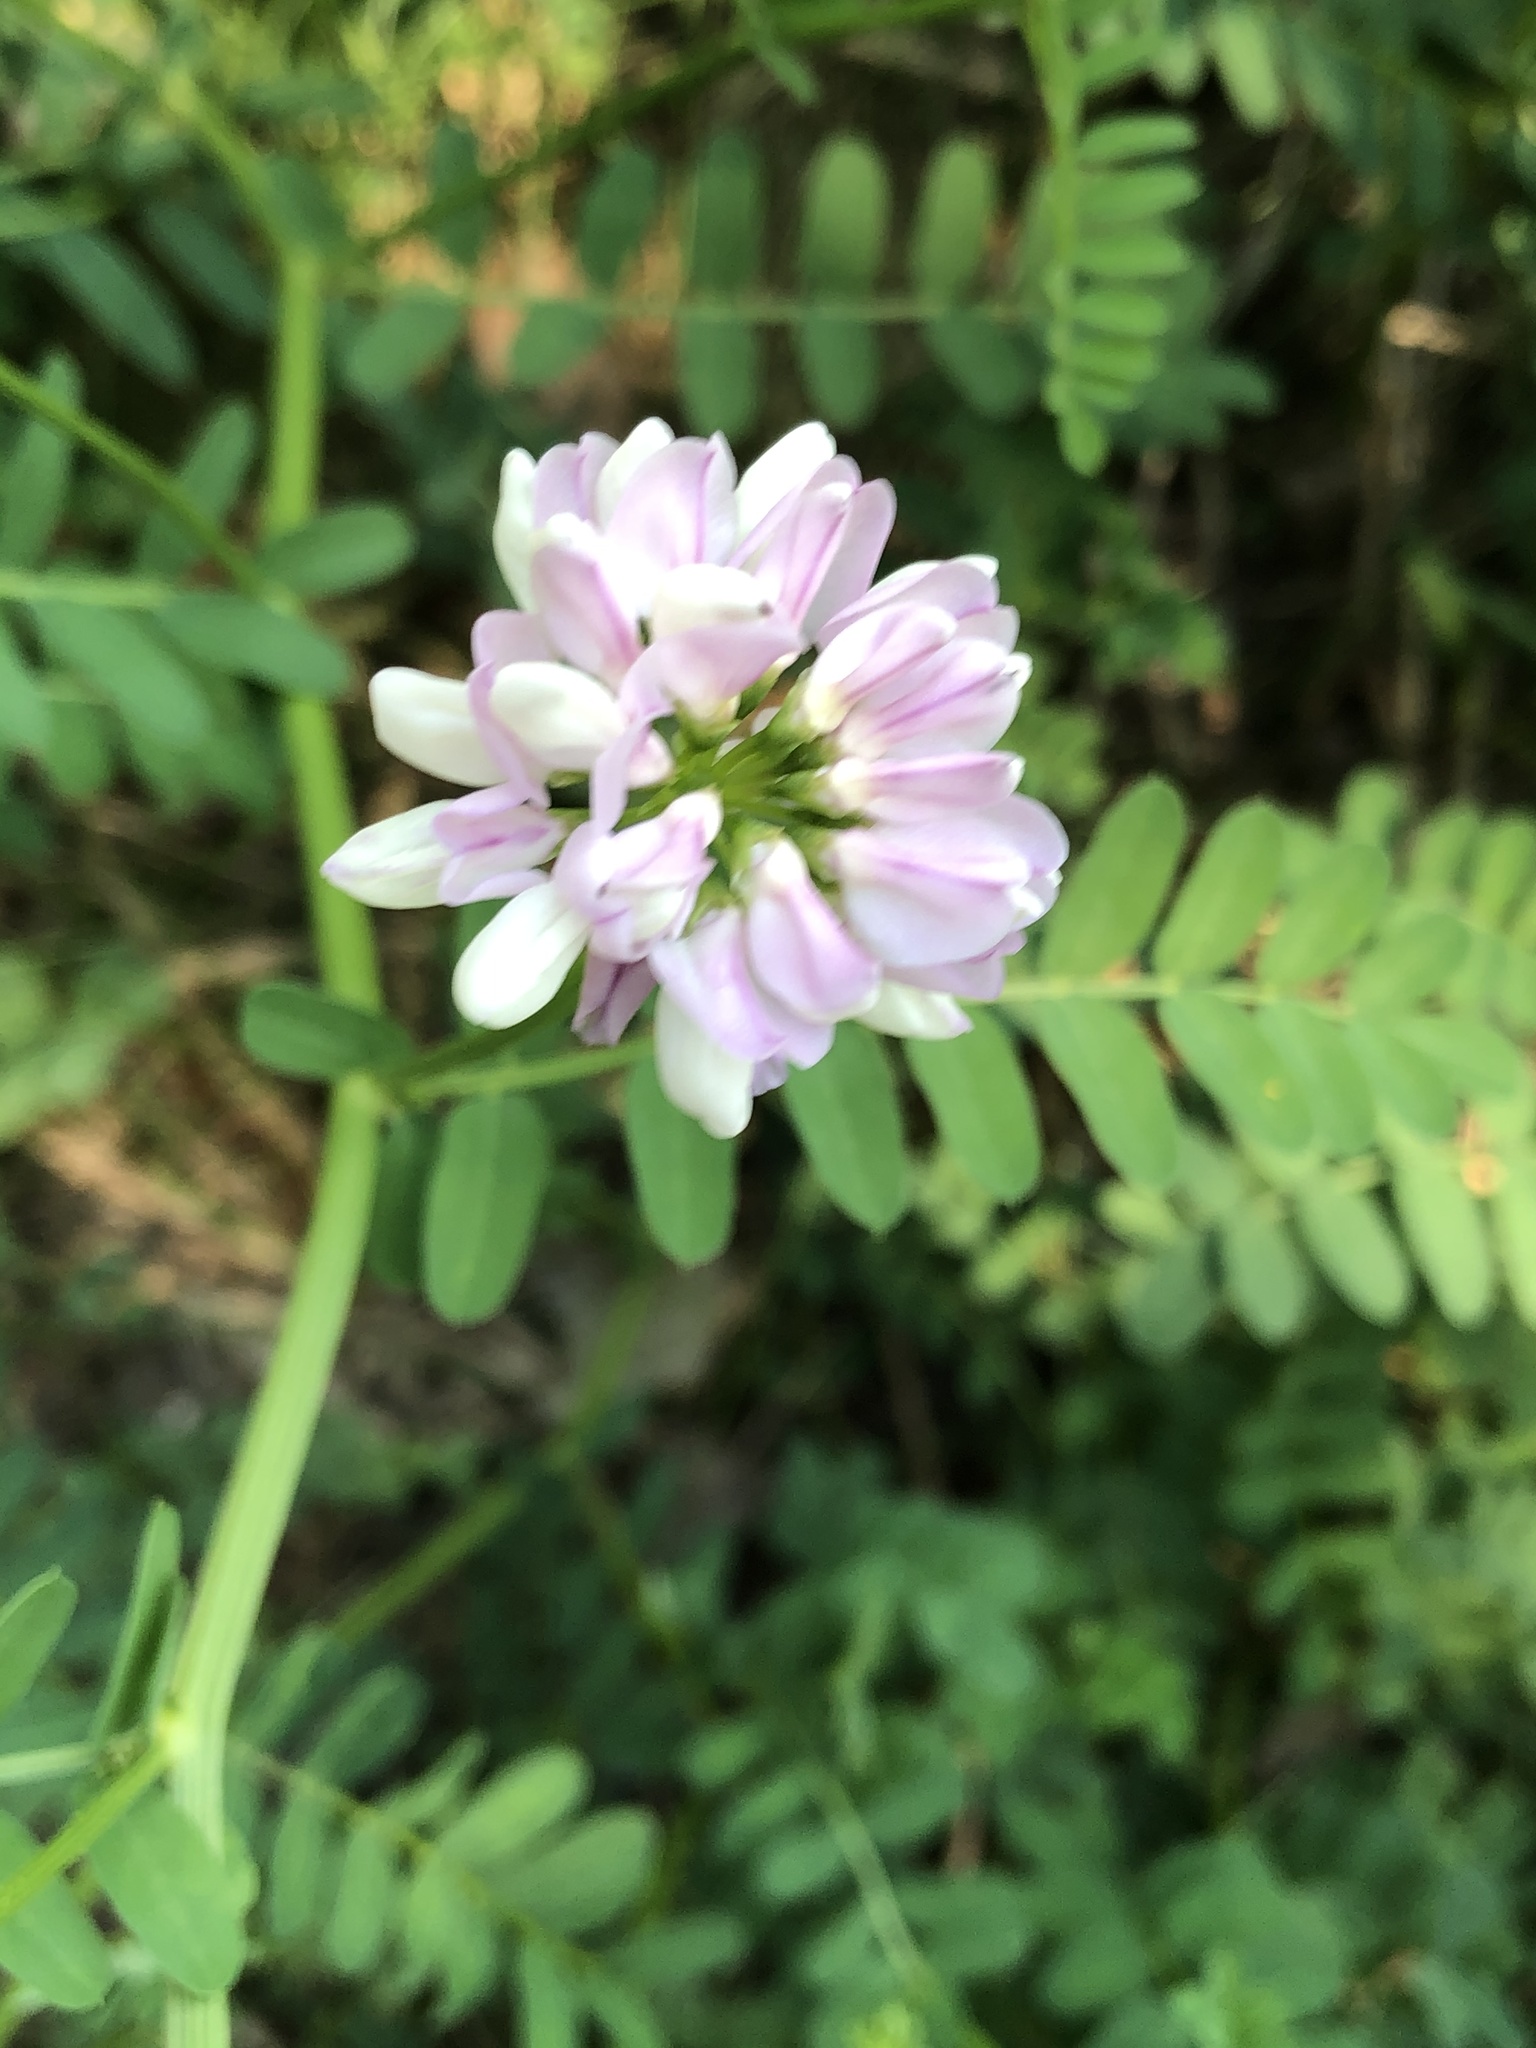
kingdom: Plantae
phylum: Tracheophyta
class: Magnoliopsida
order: Fabales
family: Fabaceae
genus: Coronilla
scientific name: Coronilla varia
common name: Crownvetch
